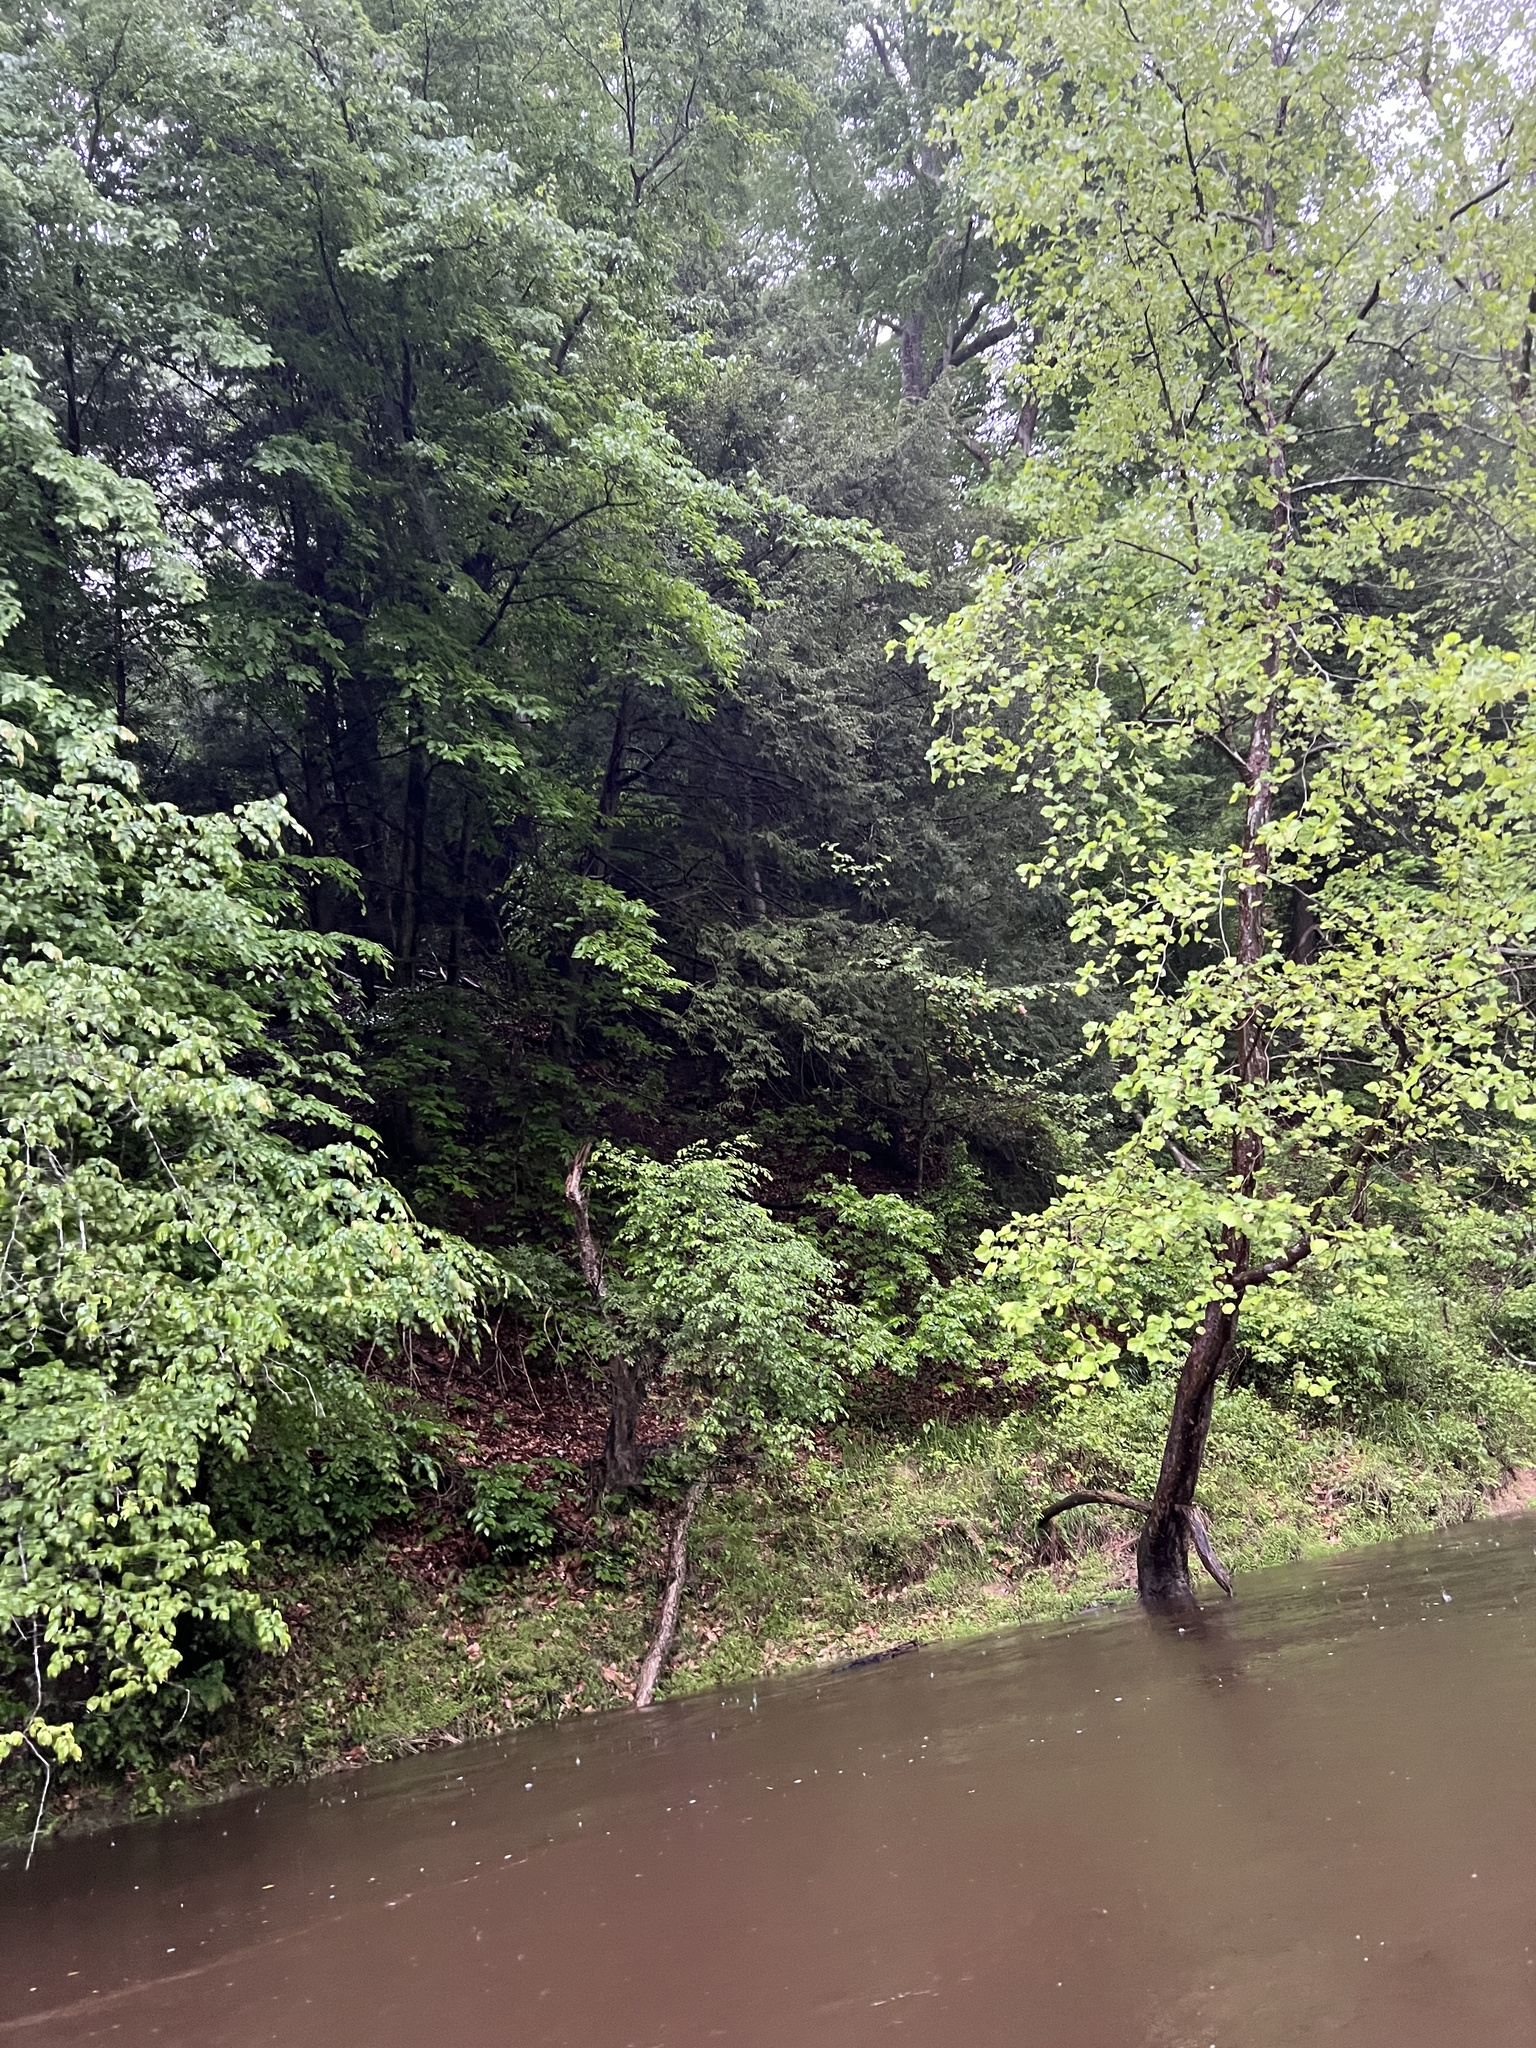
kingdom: Plantae
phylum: Tracheophyta
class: Pinopsida
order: Pinales
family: Pinaceae
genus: Tsuga
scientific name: Tsuga canadensis
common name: Eastern hemlock
